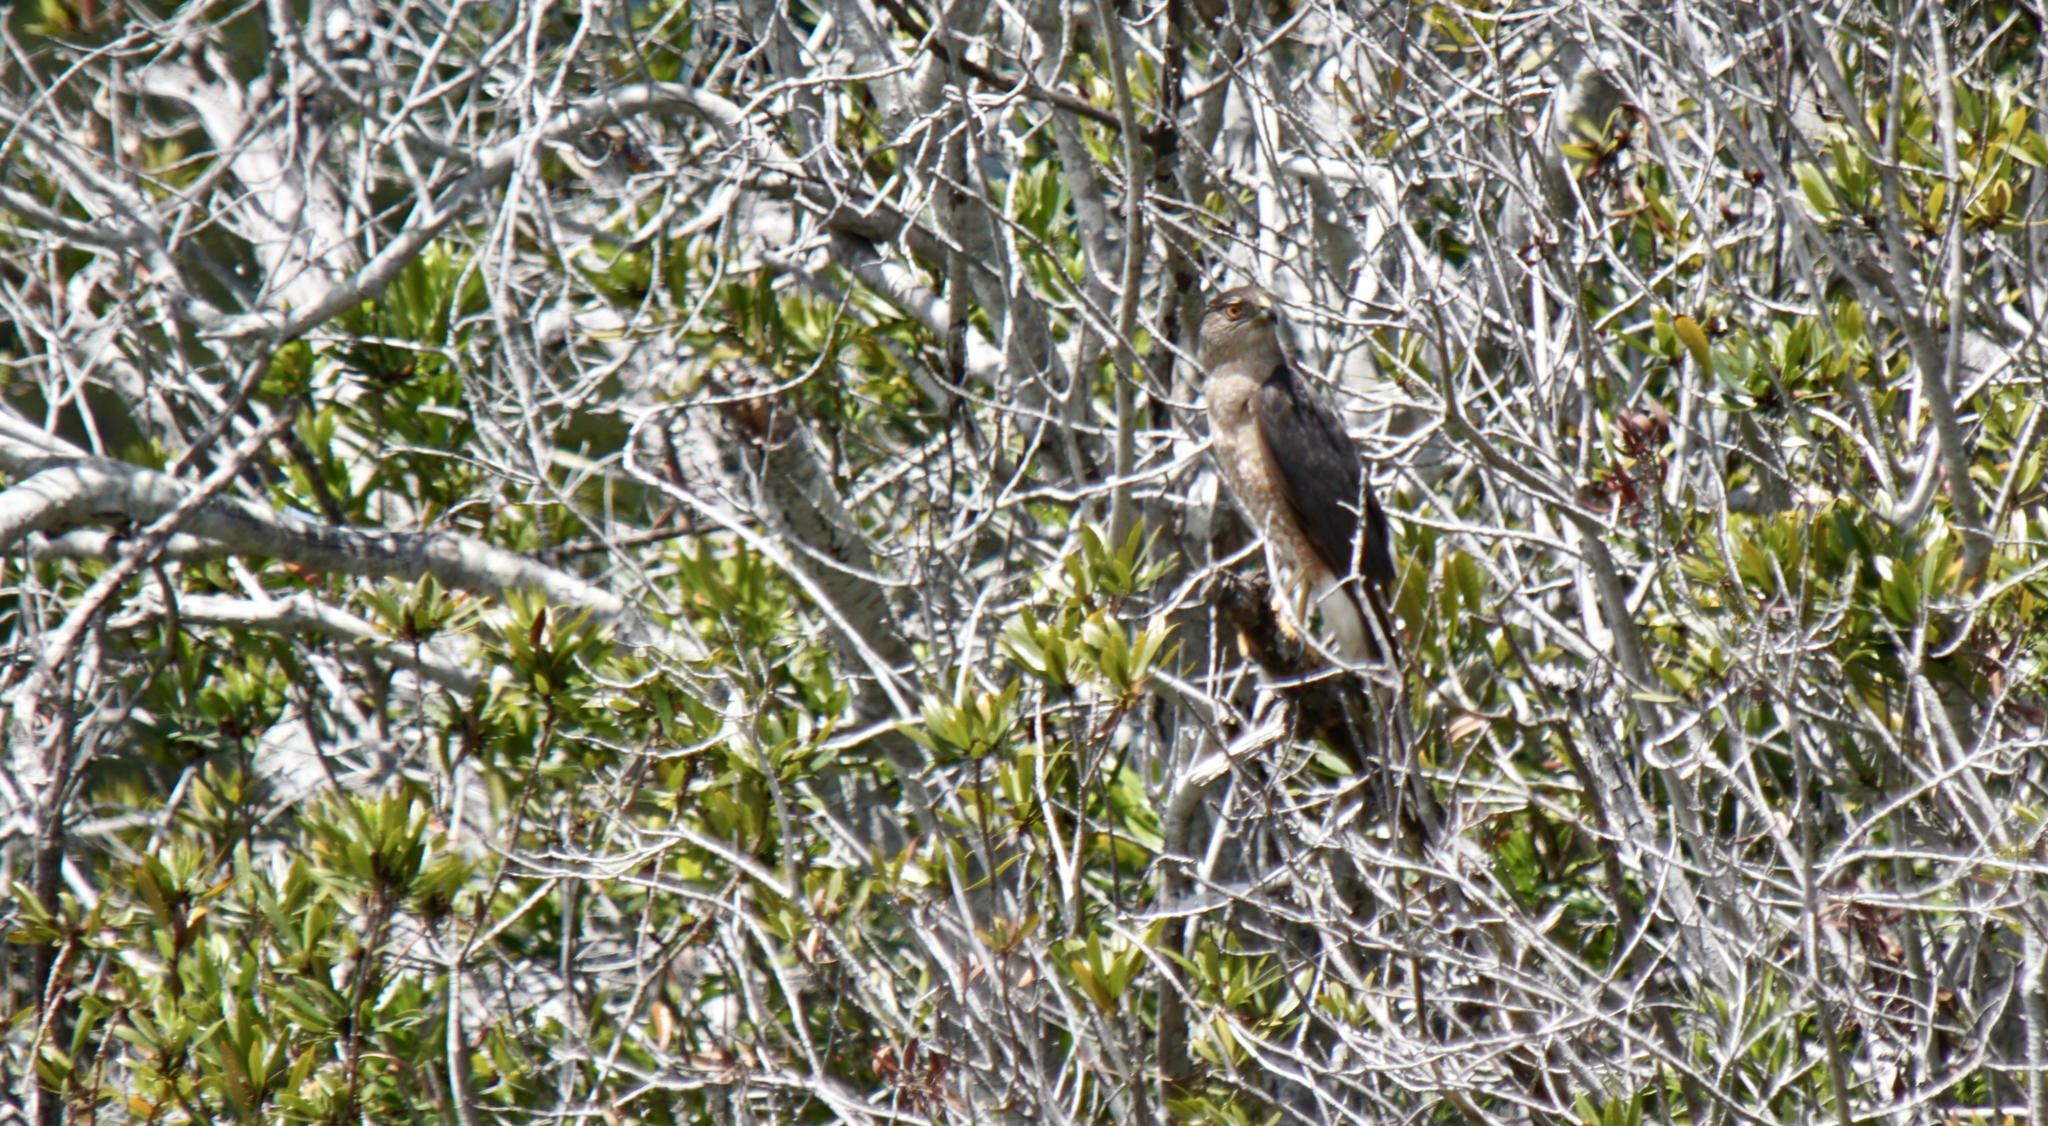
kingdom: Animalia
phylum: Chordata
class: Aves
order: Accipitriformes
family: Accipitridae
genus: Accipiter
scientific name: Accipiter cooperii
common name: Cooper's hawk
